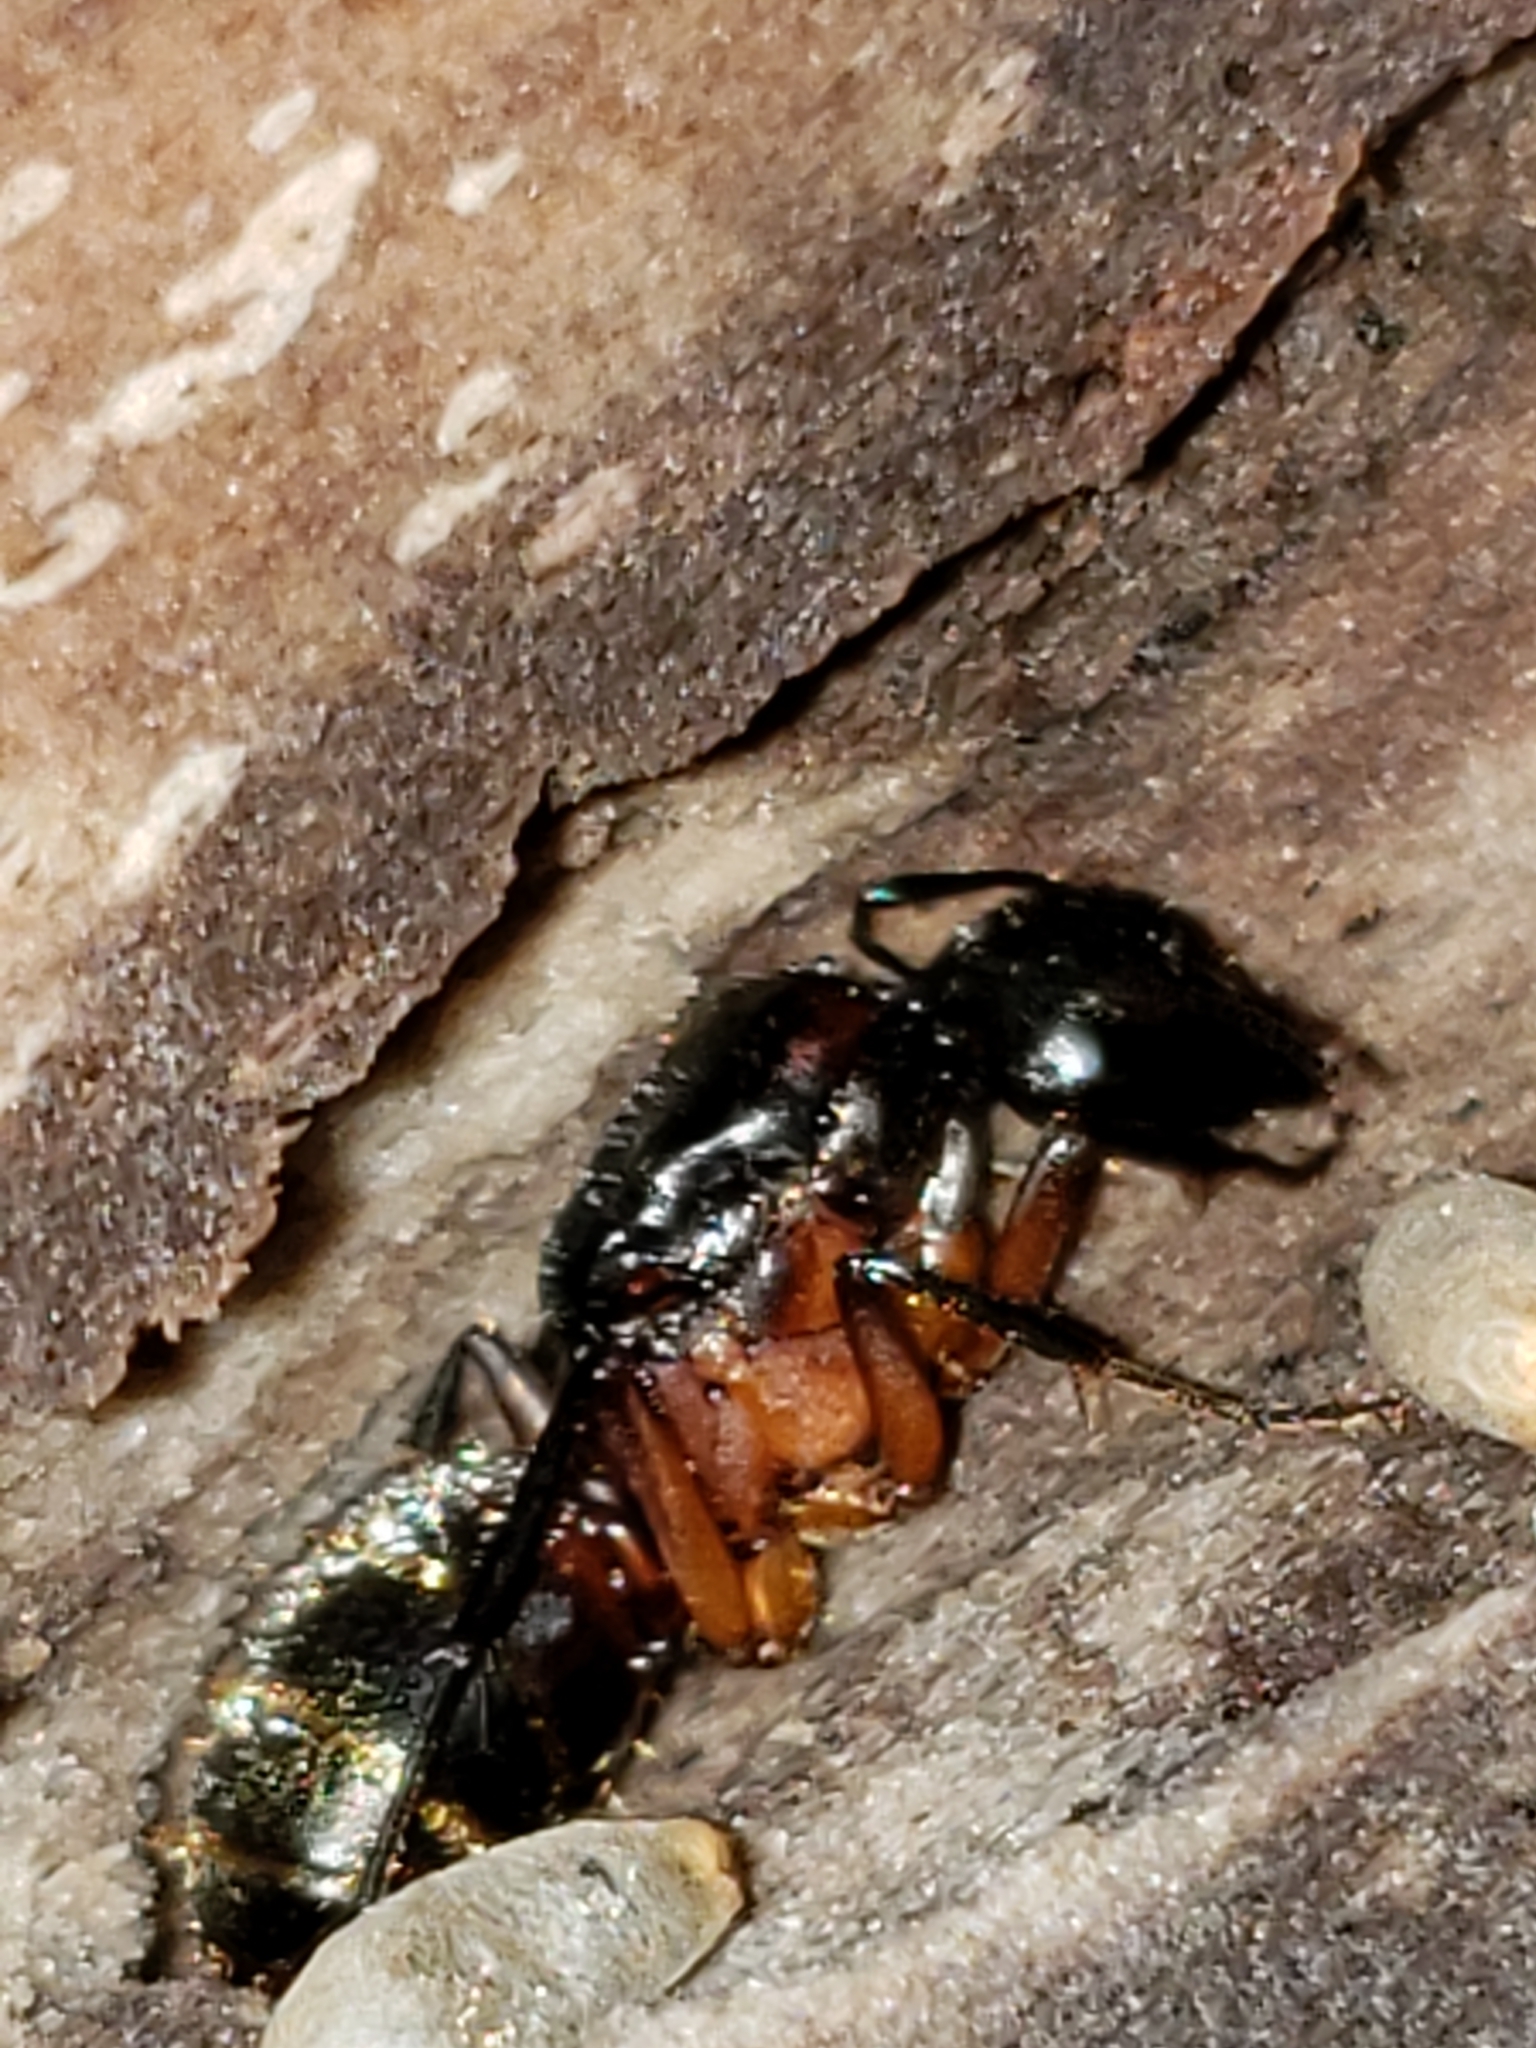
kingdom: Animalia
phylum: Arthropoda
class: Insecta
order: Hymenoptera
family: Formicidae
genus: Camponotus
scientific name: Camponotus chromaiodes
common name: Red carpenter ant
